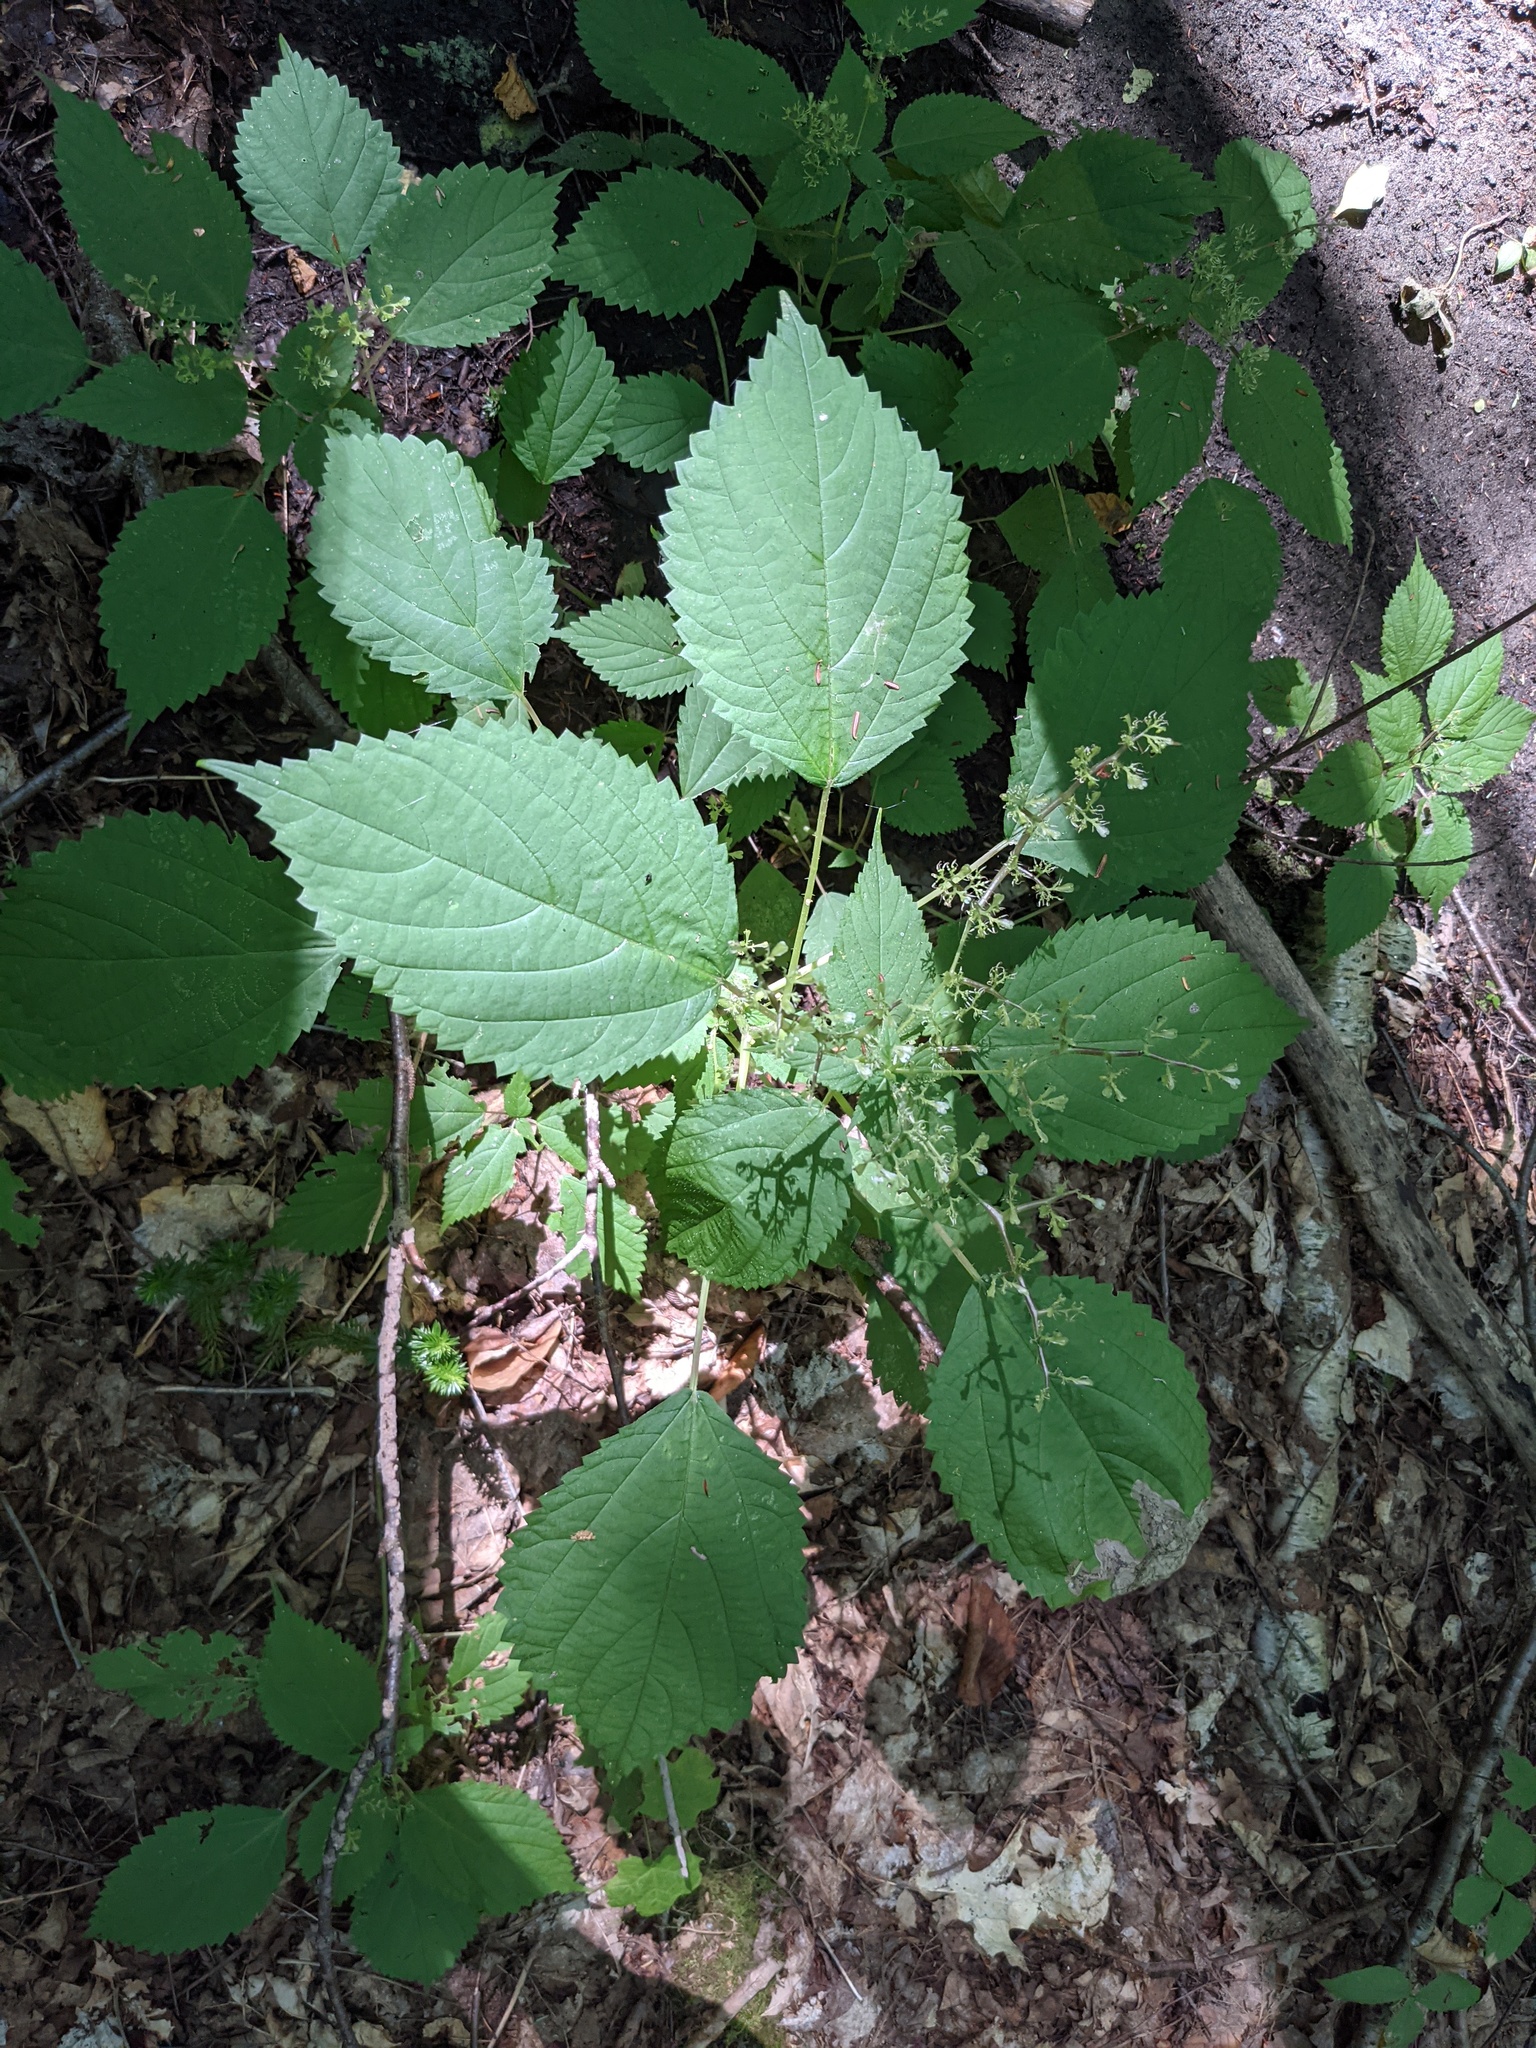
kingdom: Plantae
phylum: Tracheophyta
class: Magnoliopsida
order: Rosales
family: Urticaceae
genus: Laportea
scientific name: Laportea canadensis
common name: Canada nettle
